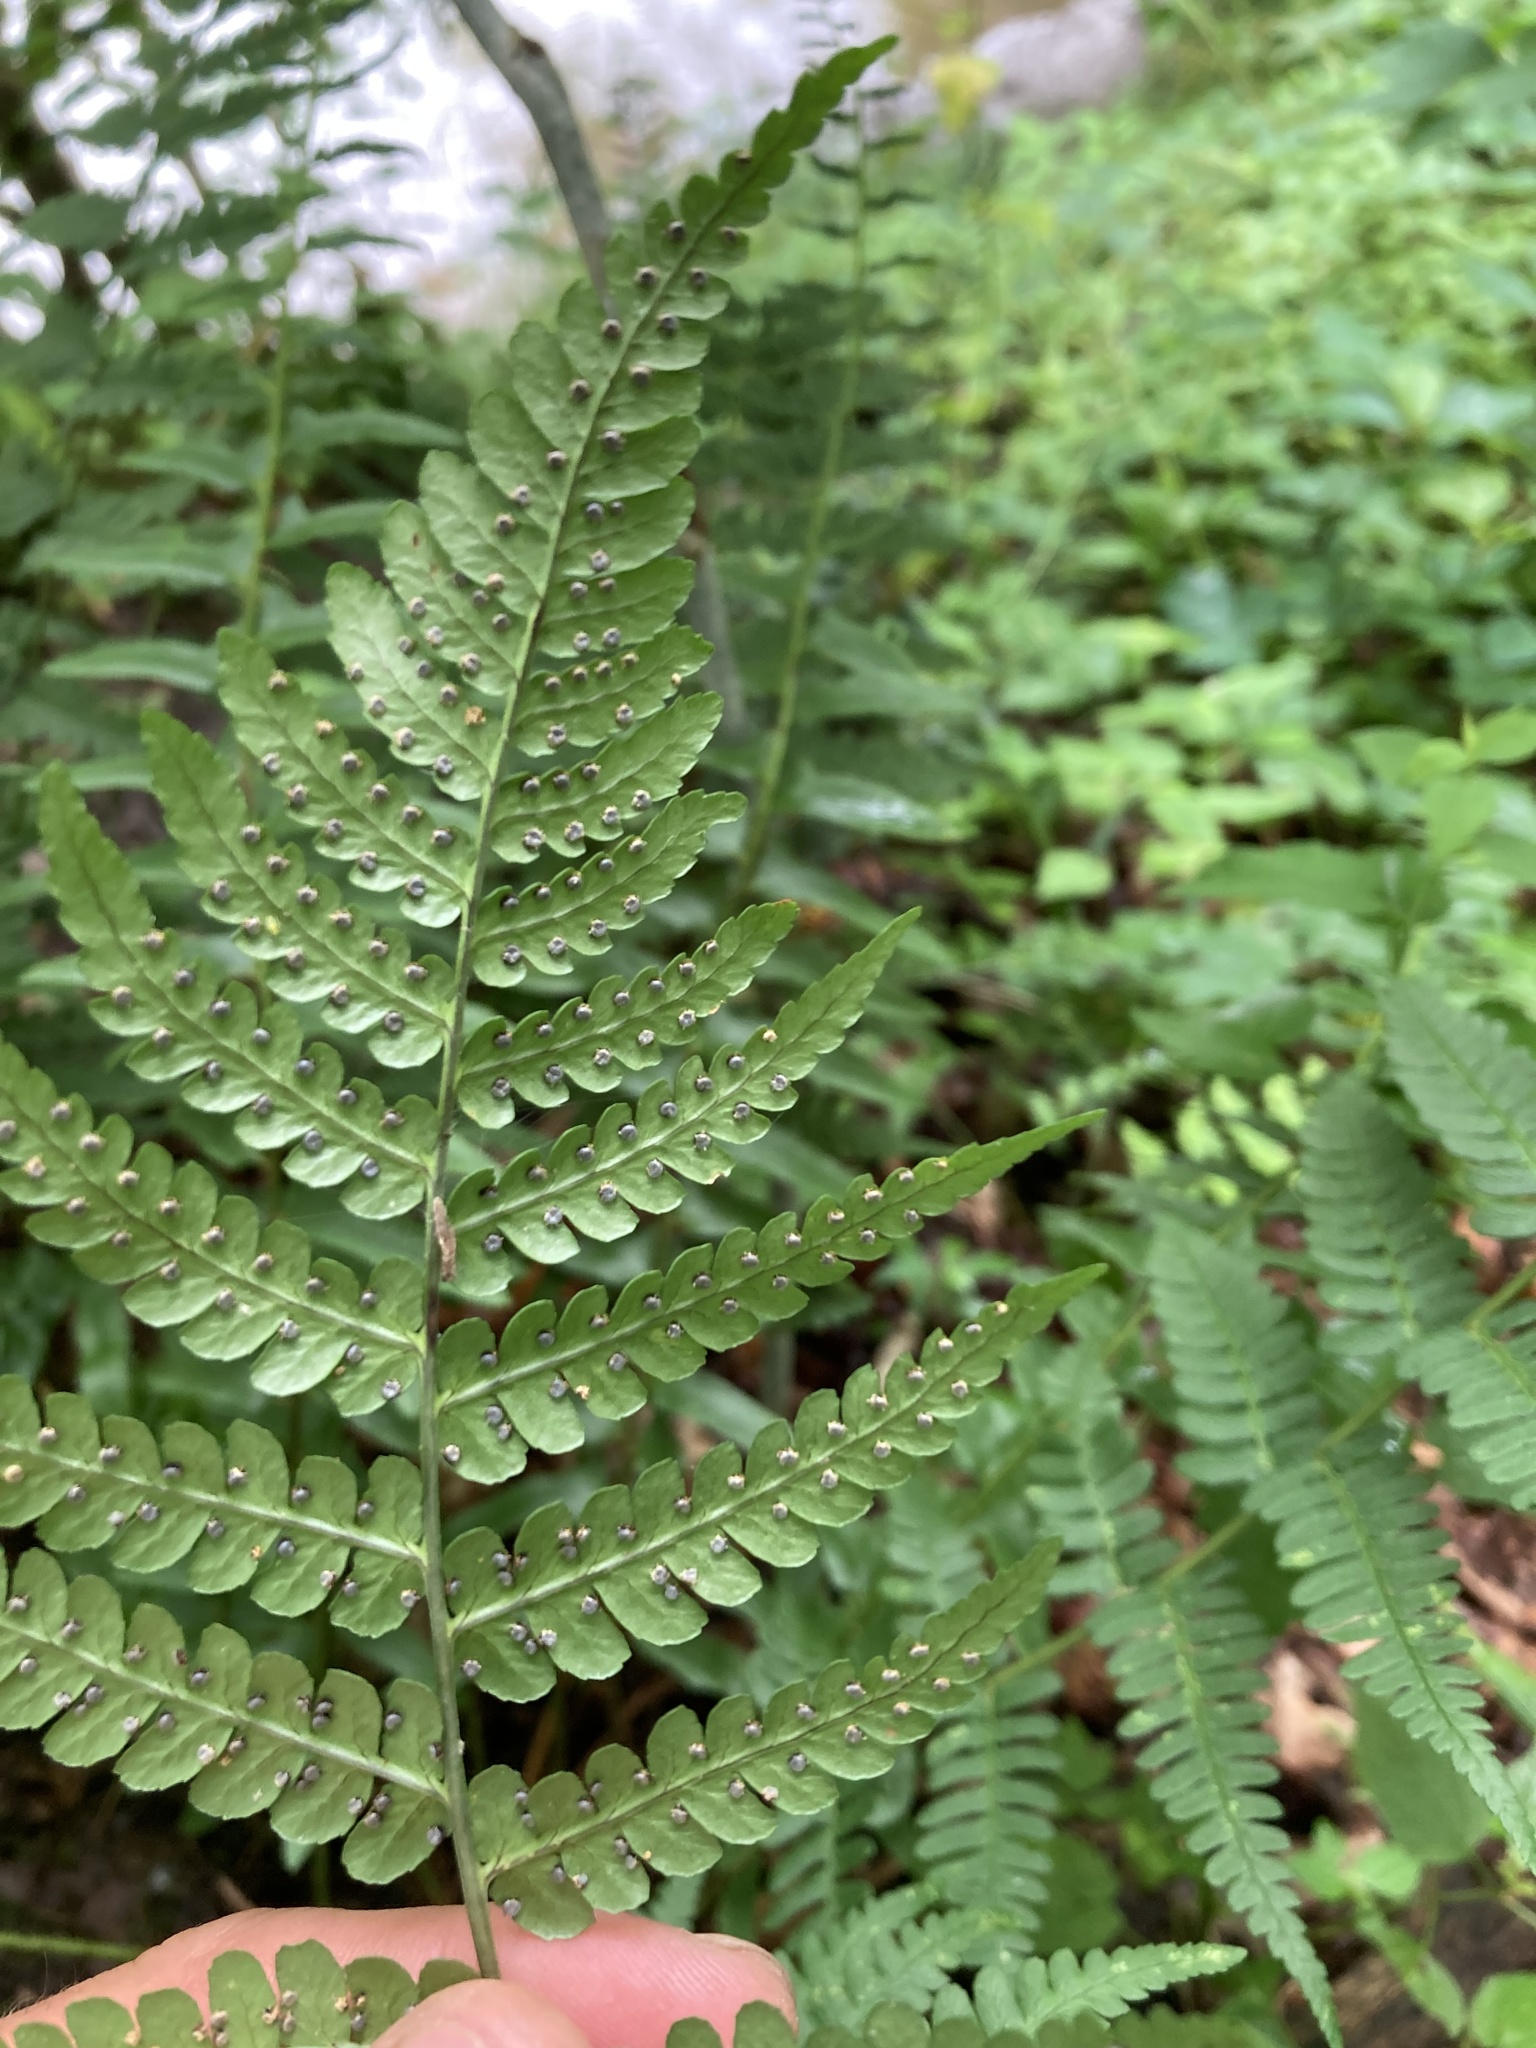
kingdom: Plantae
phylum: Tracheophyta
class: Polypodiopsida
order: Polypodiales
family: Dryopteridaceae
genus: Dryopteris
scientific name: Dryopteris marginalis
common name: Marginal wood fern
